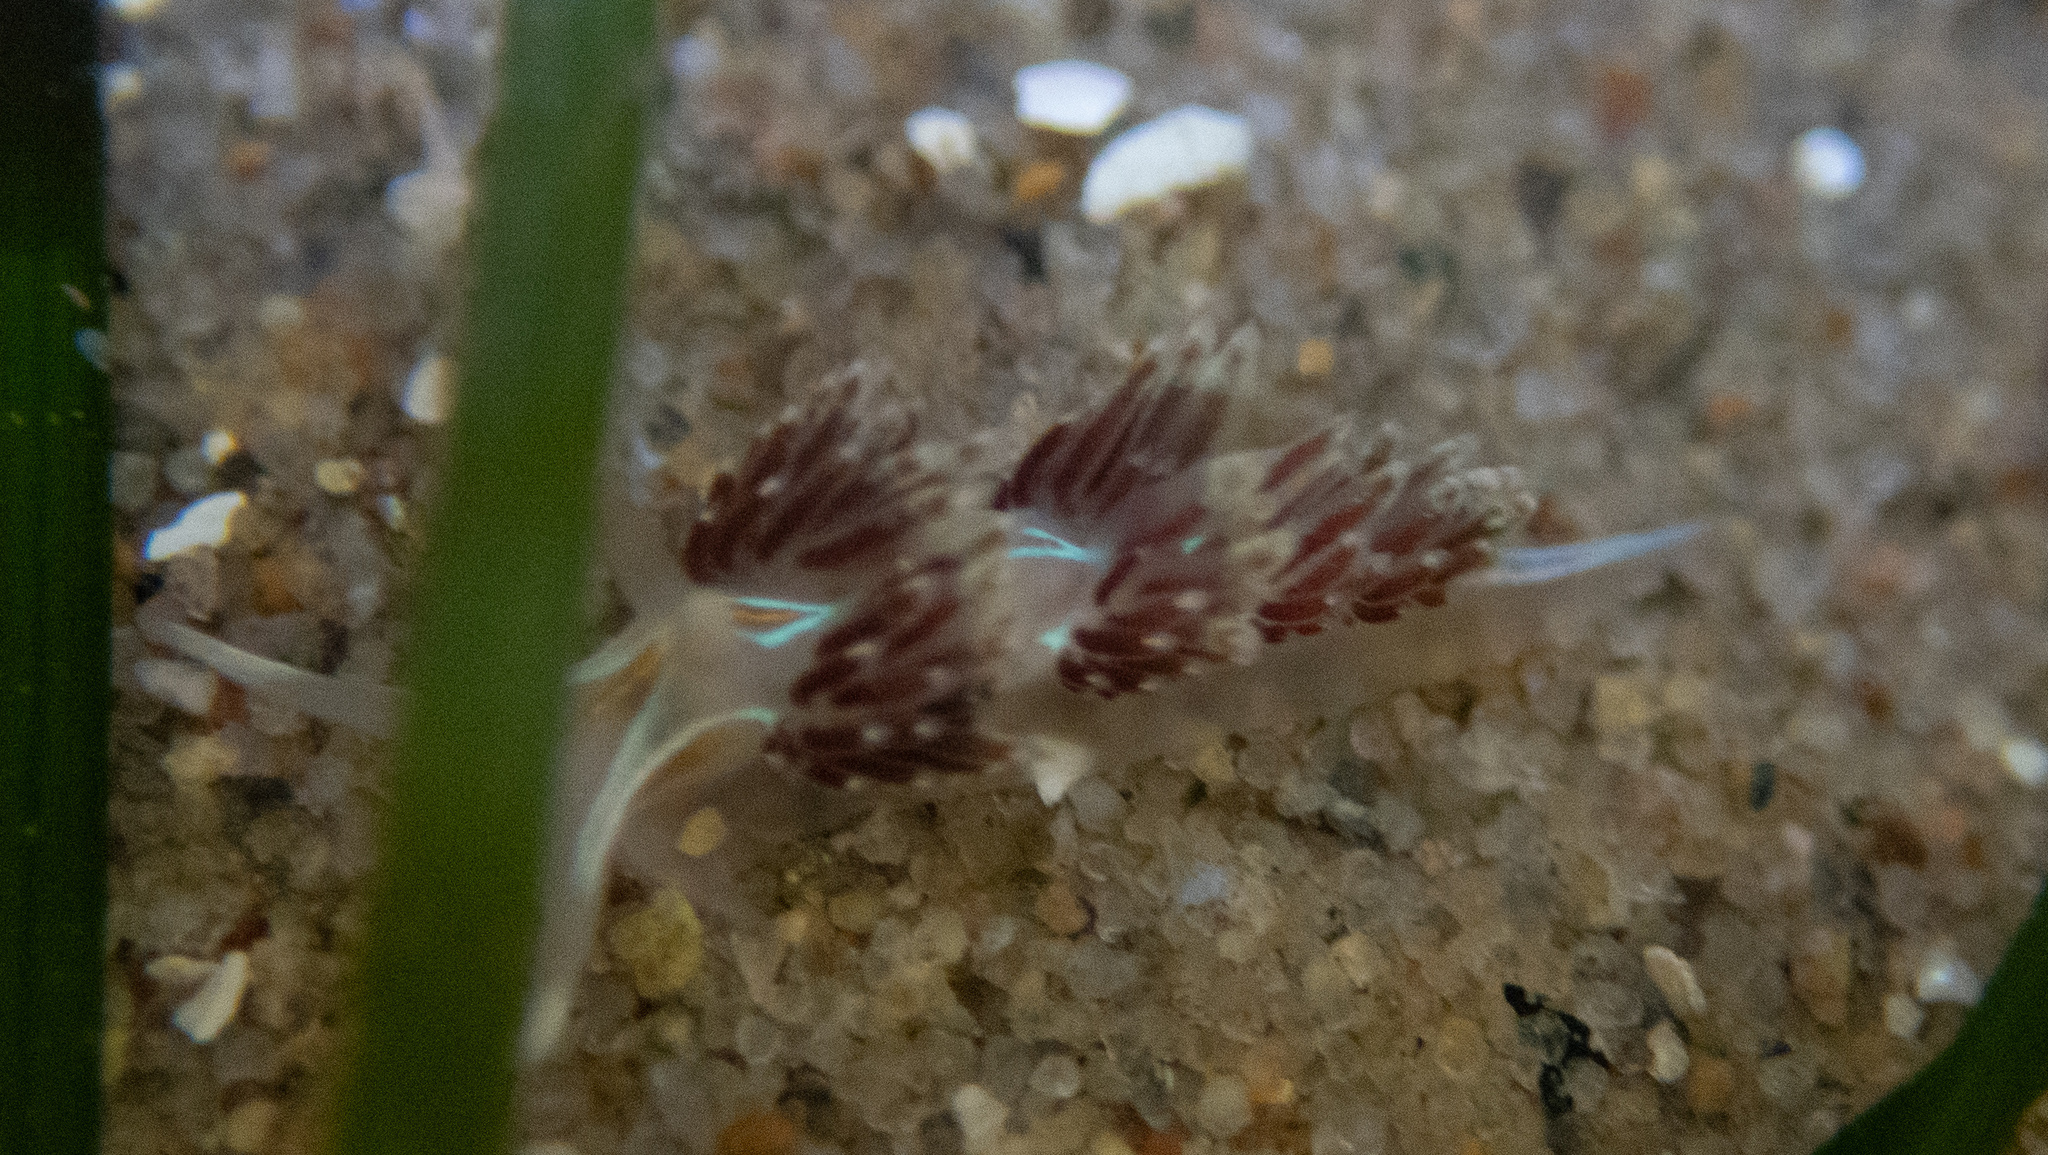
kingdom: Animalia
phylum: Mollusca
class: Gastropoda
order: Nudibranchia
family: Myrrhinidae
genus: Hermissenda
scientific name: Hermissenda opalescens
